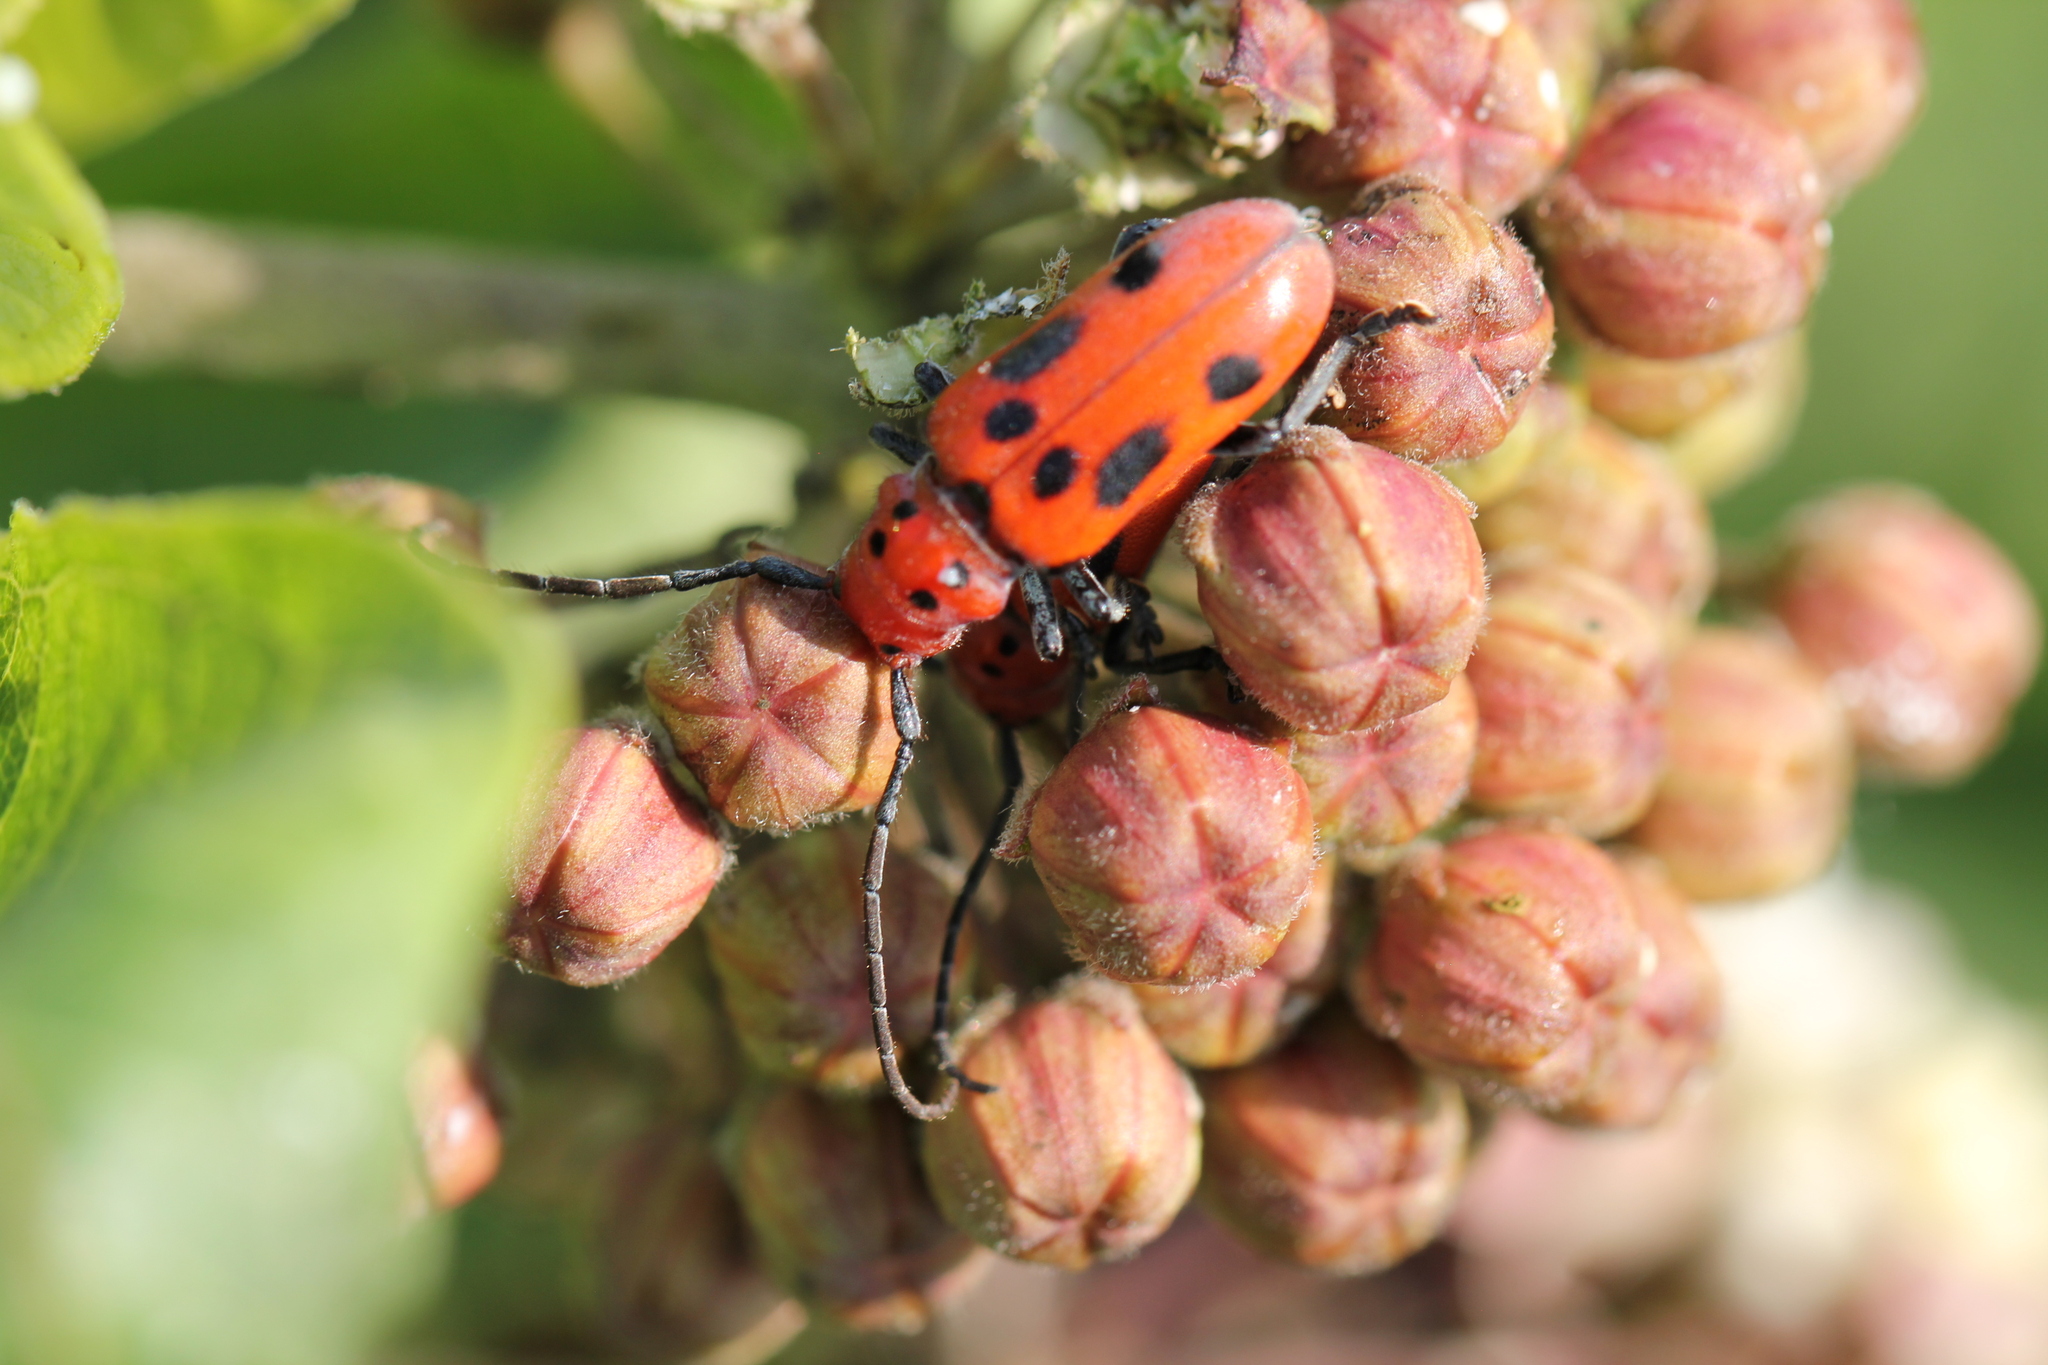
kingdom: Animalia
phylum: Arthropoda
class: Insecta
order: Coleoptera
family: Cerambycidae
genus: Tetraopes
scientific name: Tetraopes tetrophthalmus
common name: Red milkweed beetle
